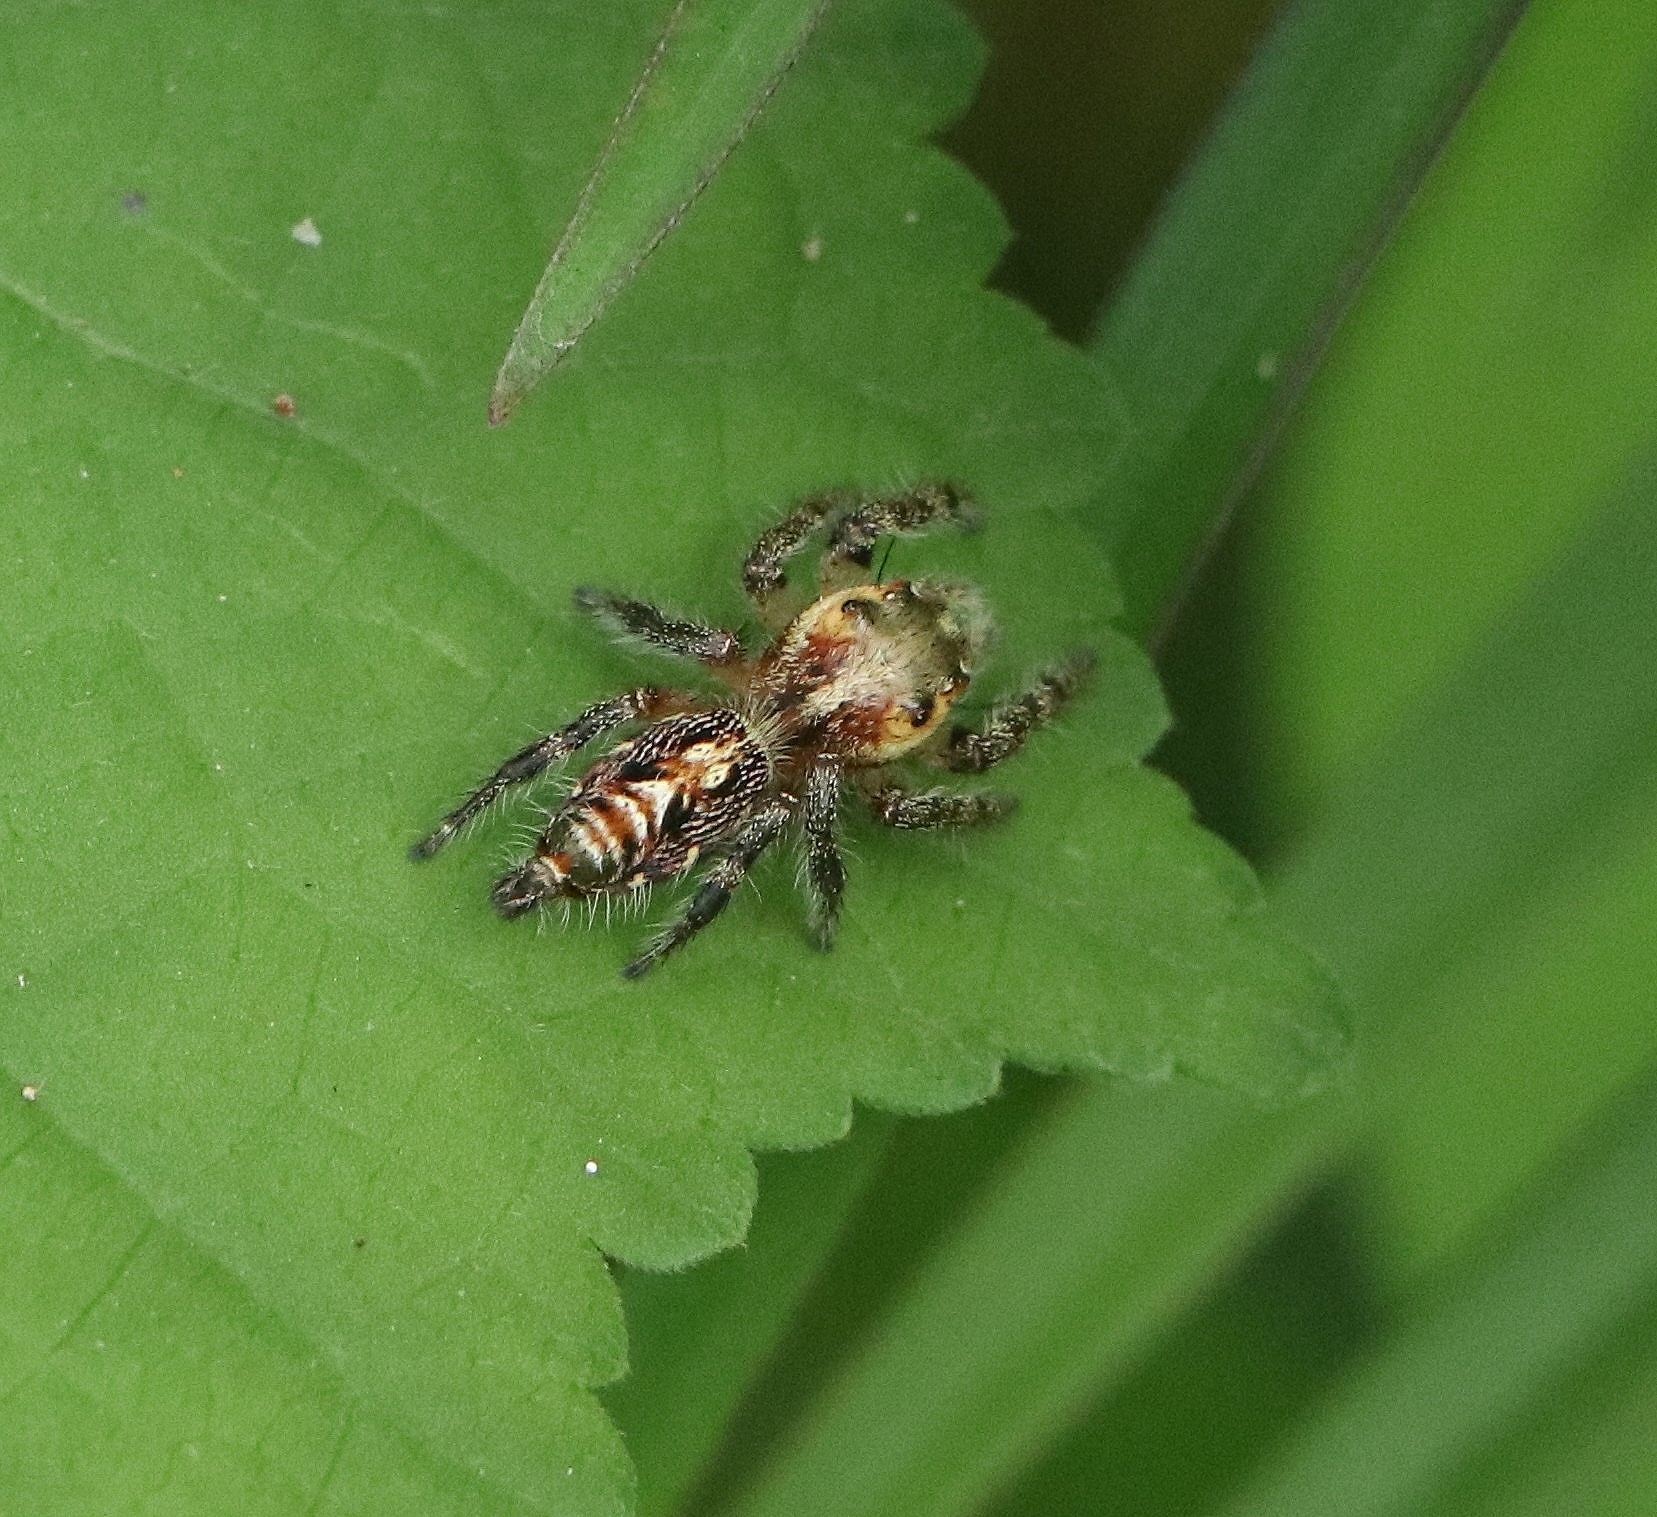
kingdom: Animalia
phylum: Arthropoda
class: Arachnida
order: Araneae
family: Salticidae
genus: Hyllus
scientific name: Hyllus semicupreus
